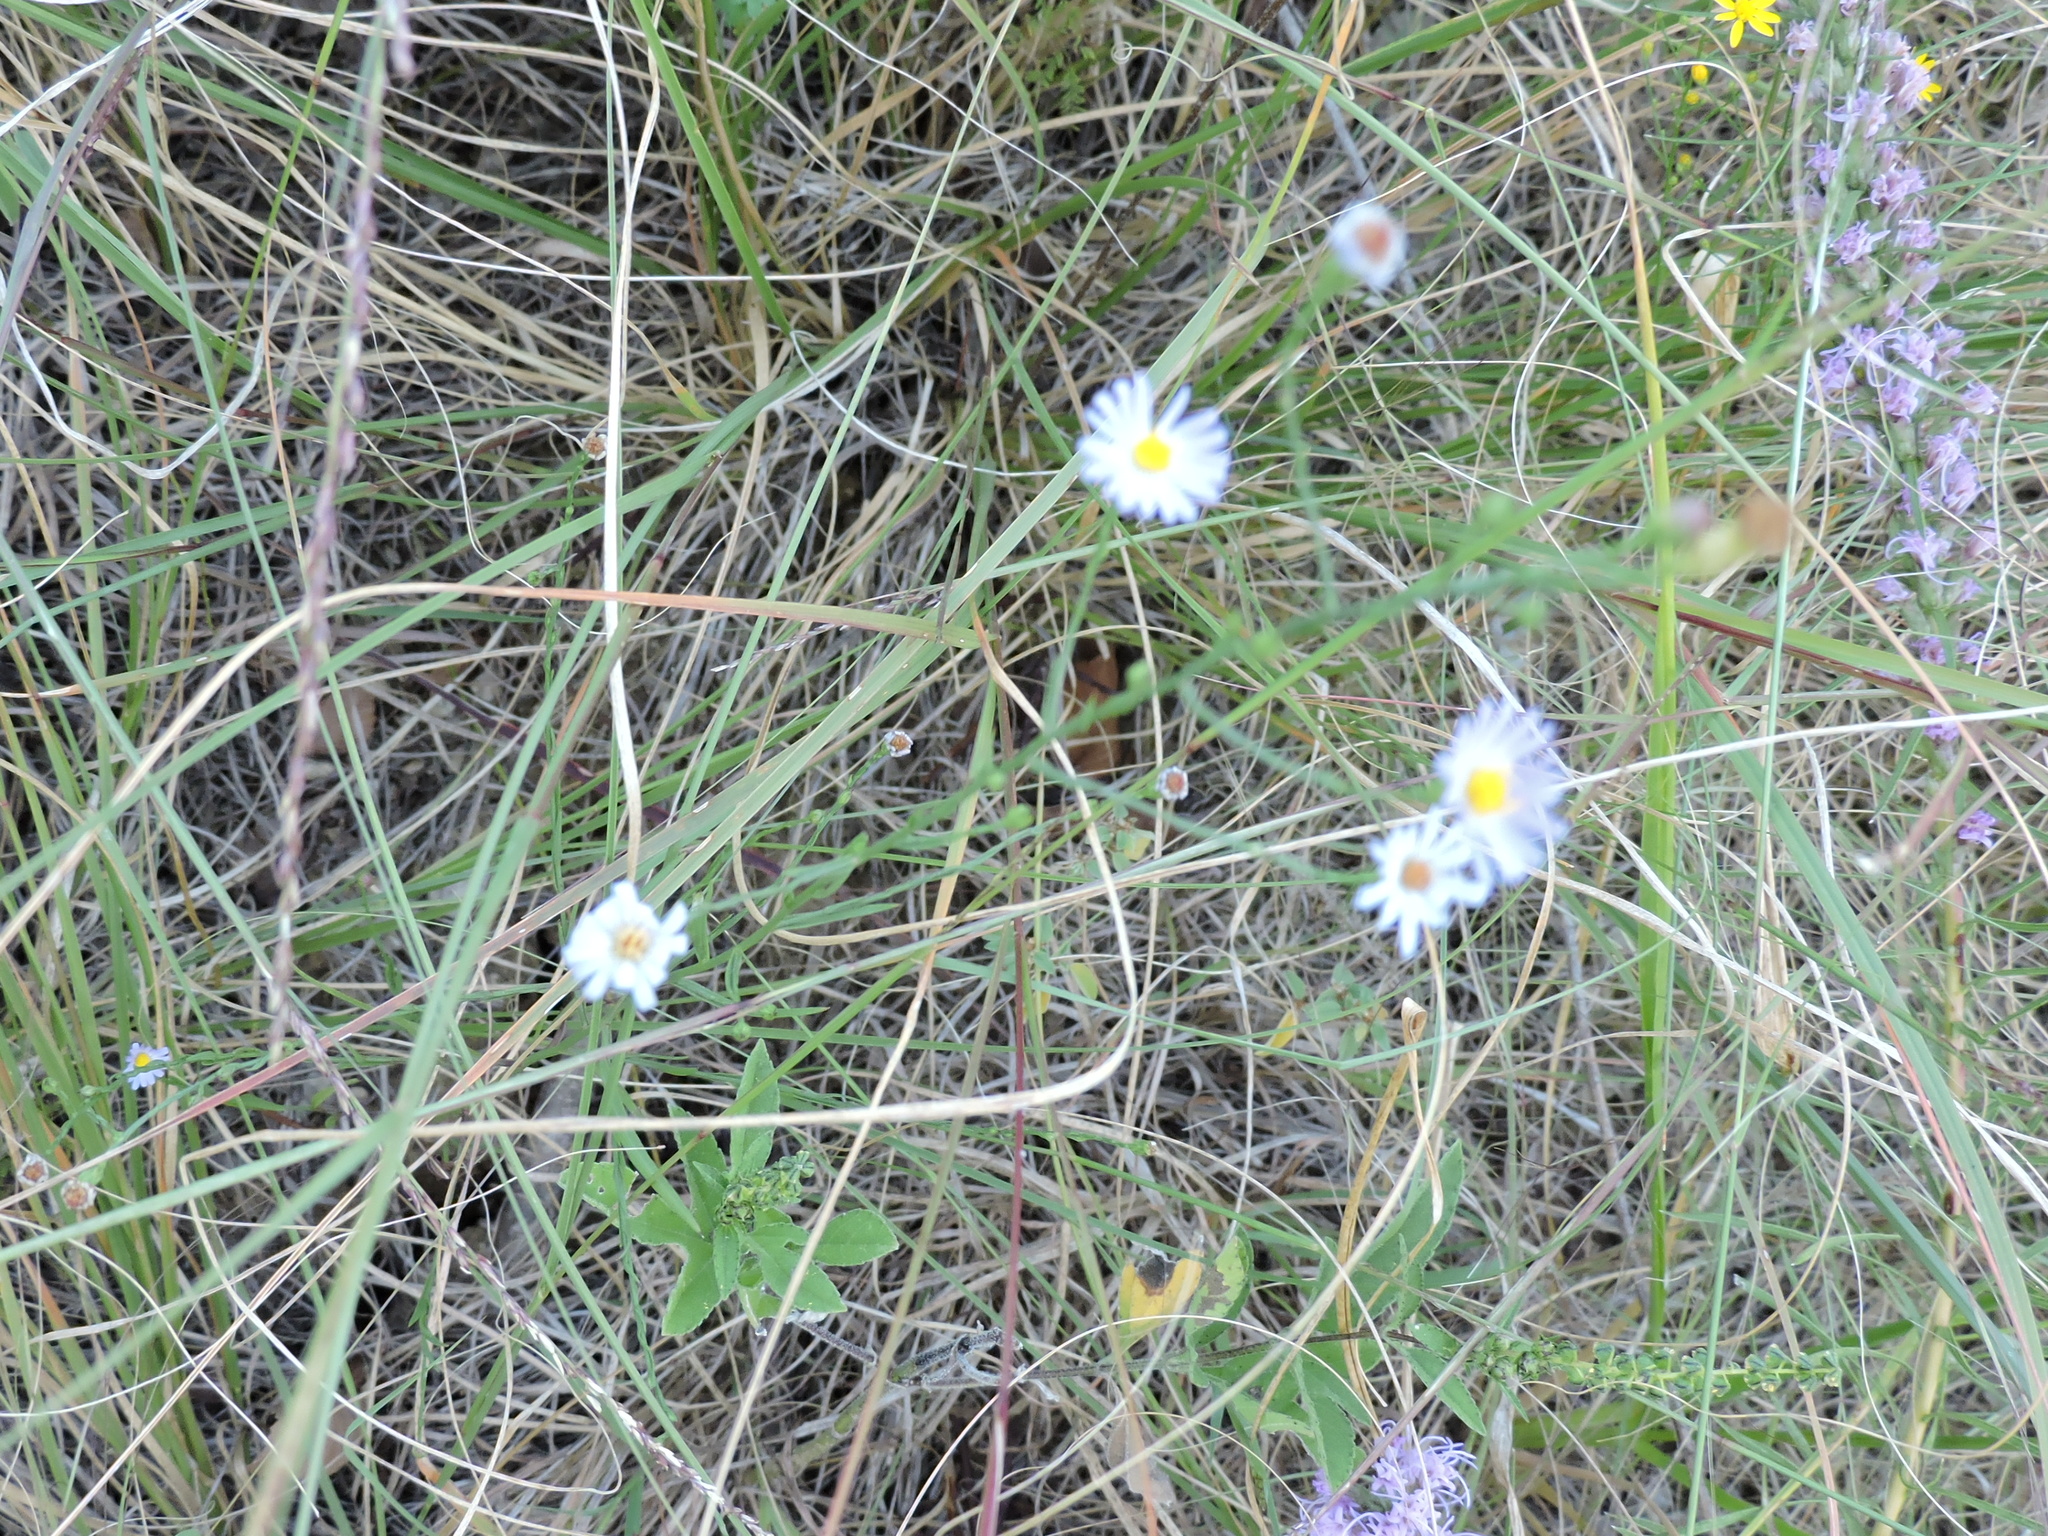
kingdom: Plantae
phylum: Tracheophyta
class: Magnoliopsida
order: Asterales
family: Asteraceae
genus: Symphyotrichum
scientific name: Symphyotrichum divaricatum
